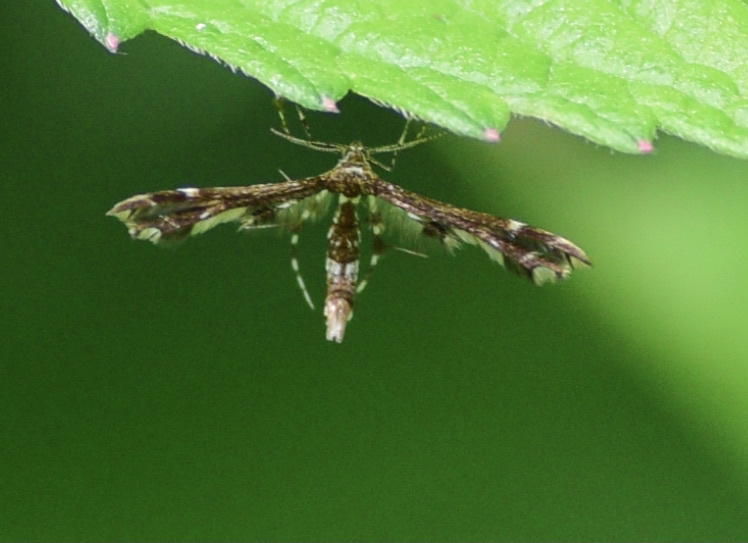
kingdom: Animalia
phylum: Arthropoda
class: Insecta
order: Lepidoptera
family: Pterophoridae
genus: Geina
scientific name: Geina
